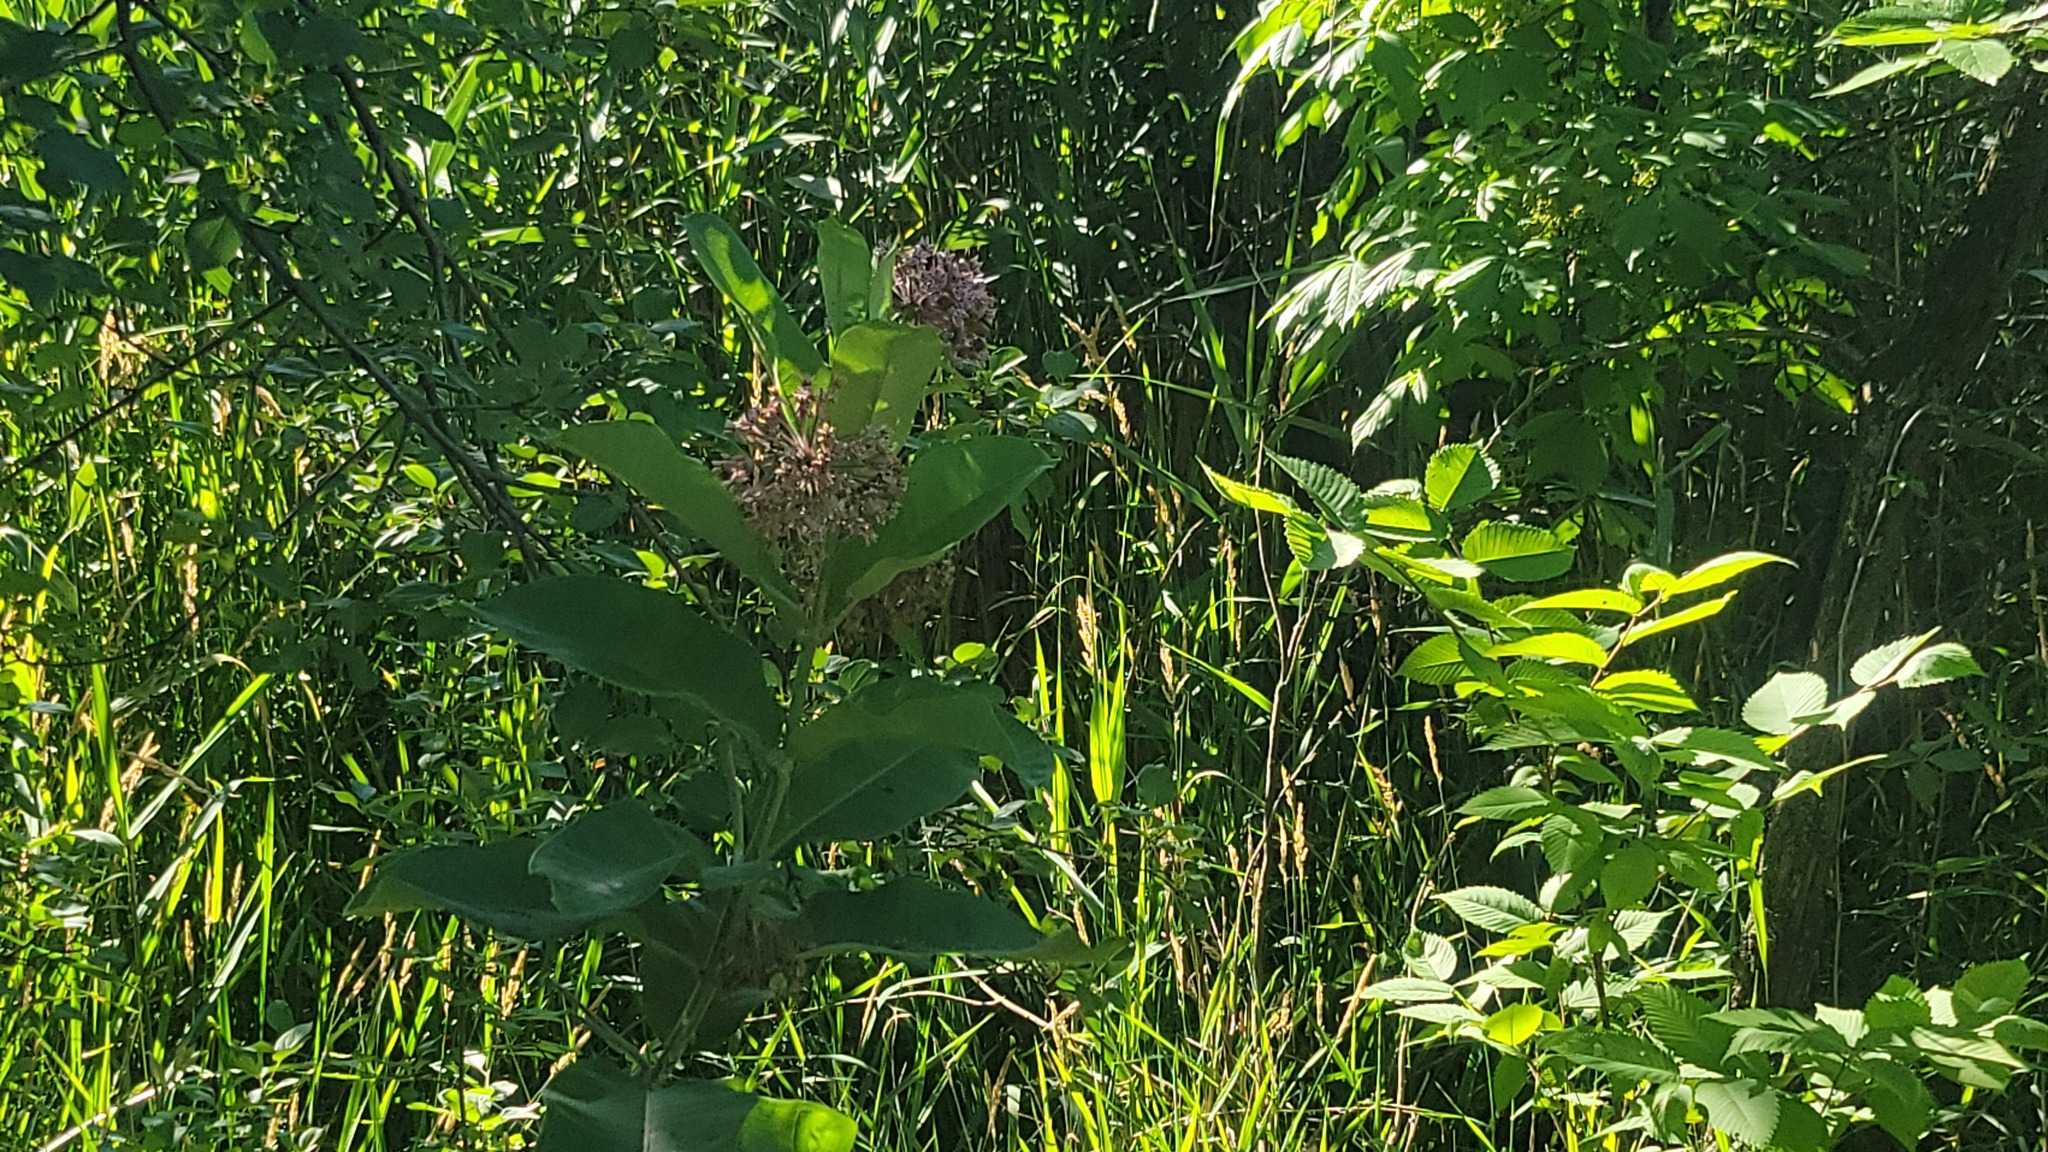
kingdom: Plantae
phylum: Tracheophyta
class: Magnoliopsida
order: Gentianales
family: Apocynaceae
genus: Asclepias
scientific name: Asclepias syriaca
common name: Common milkweed
